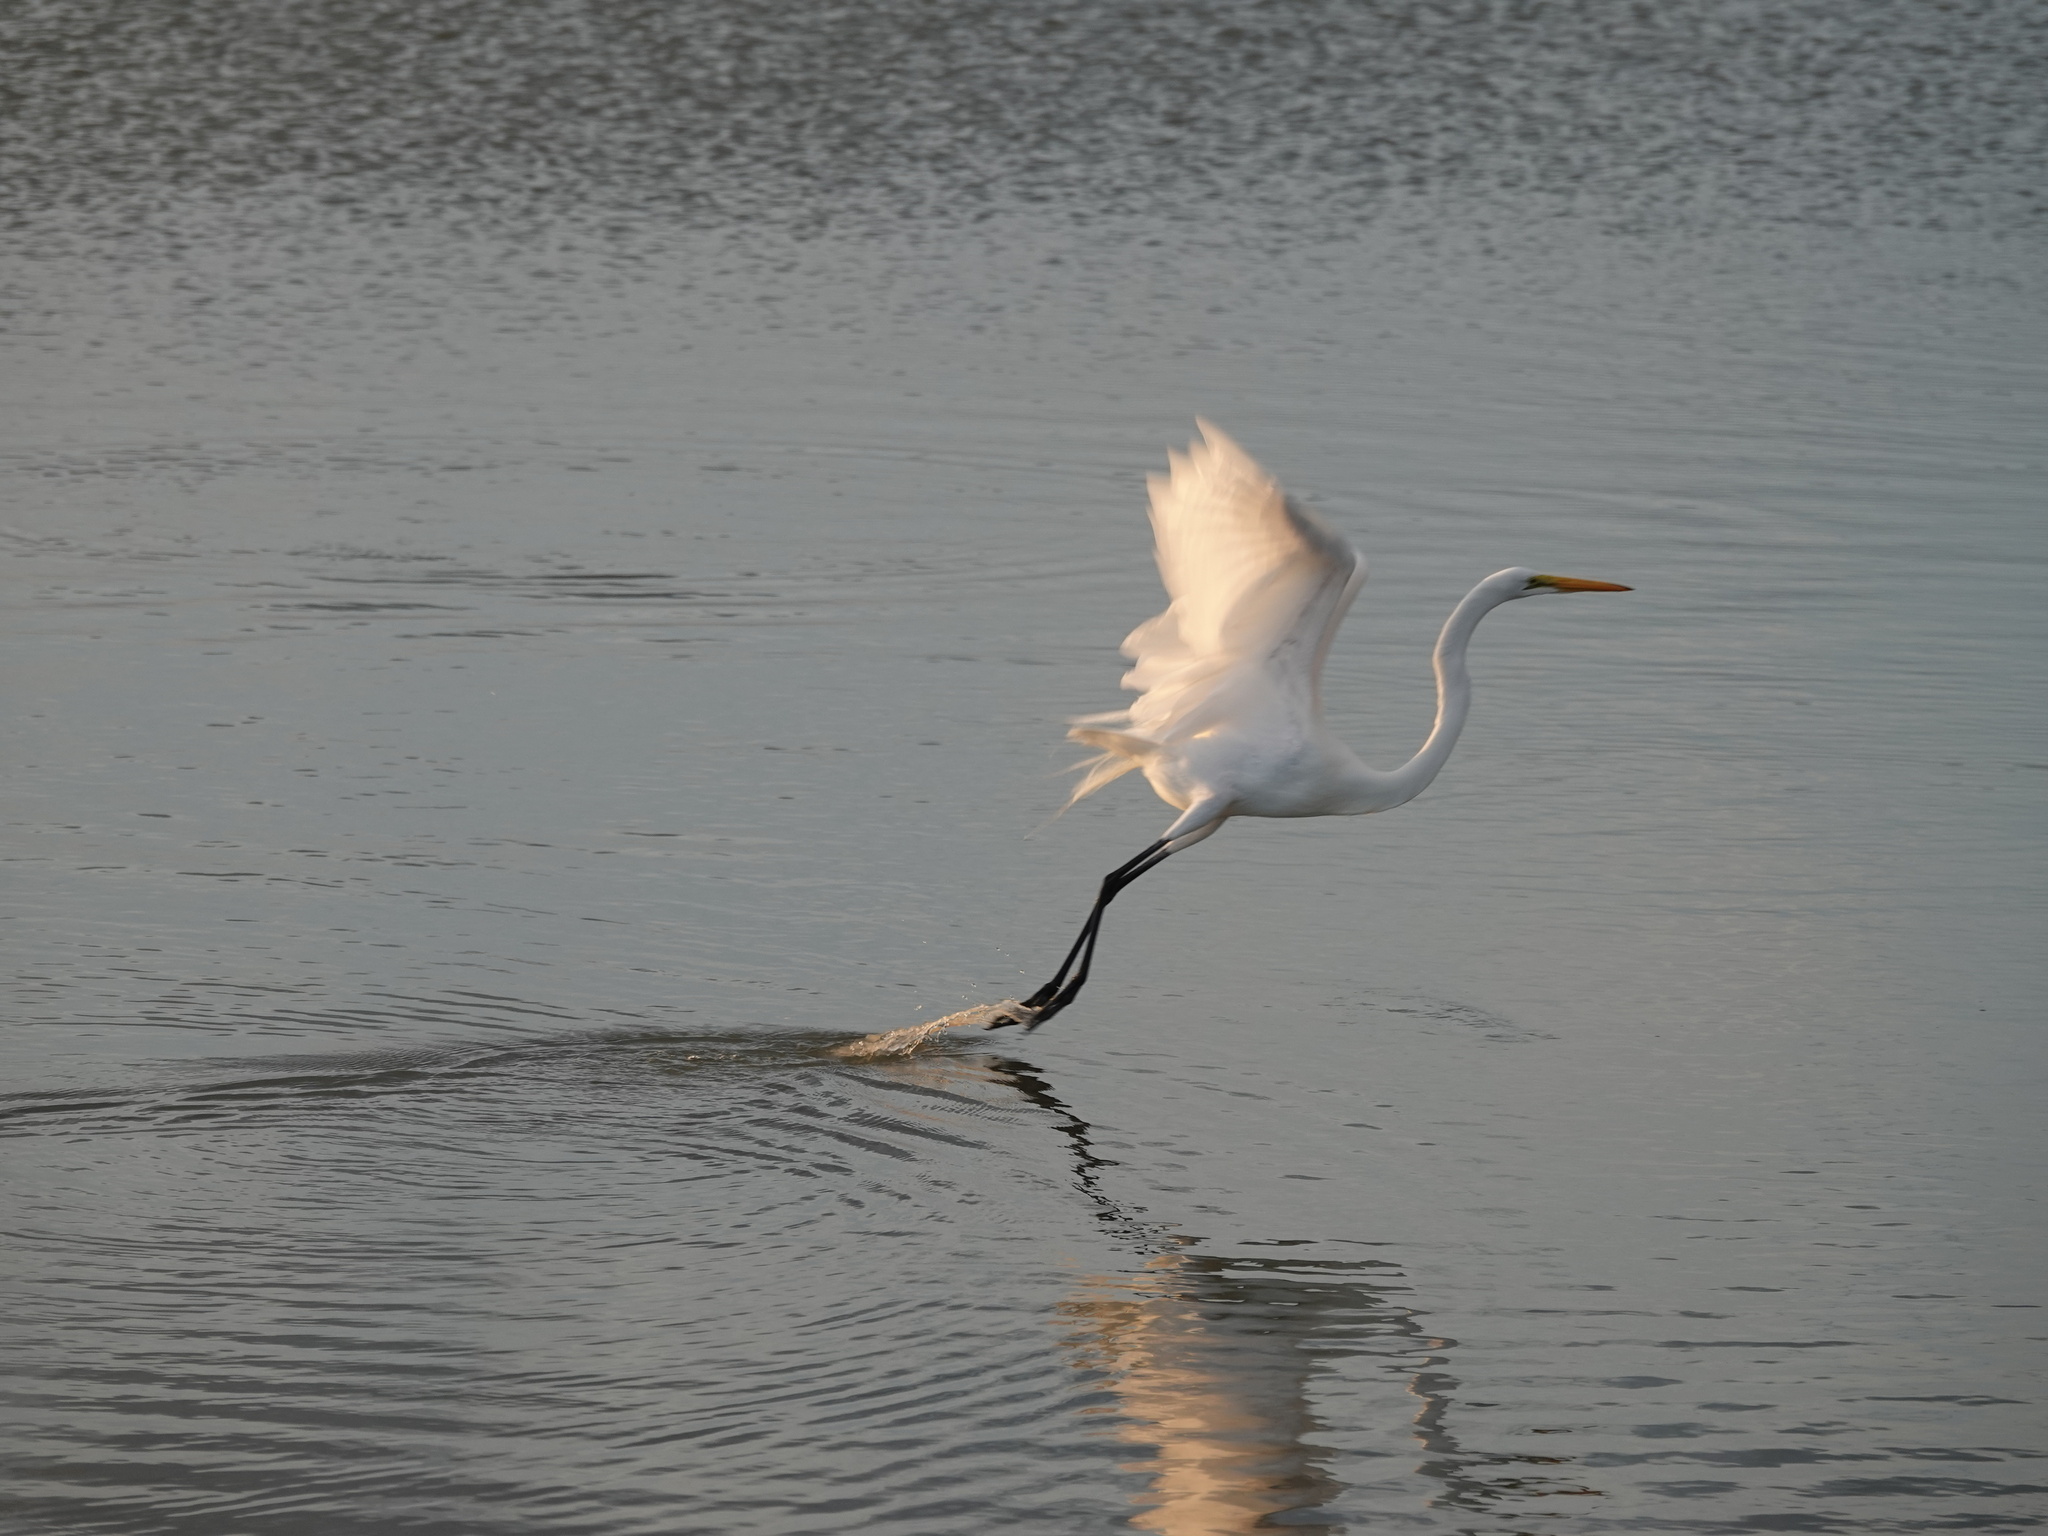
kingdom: Animalia
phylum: Chordata
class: Aves
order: Pelecaniformes
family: Ardeidae
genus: Ardea
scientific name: Ardea alba
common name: Great egret
